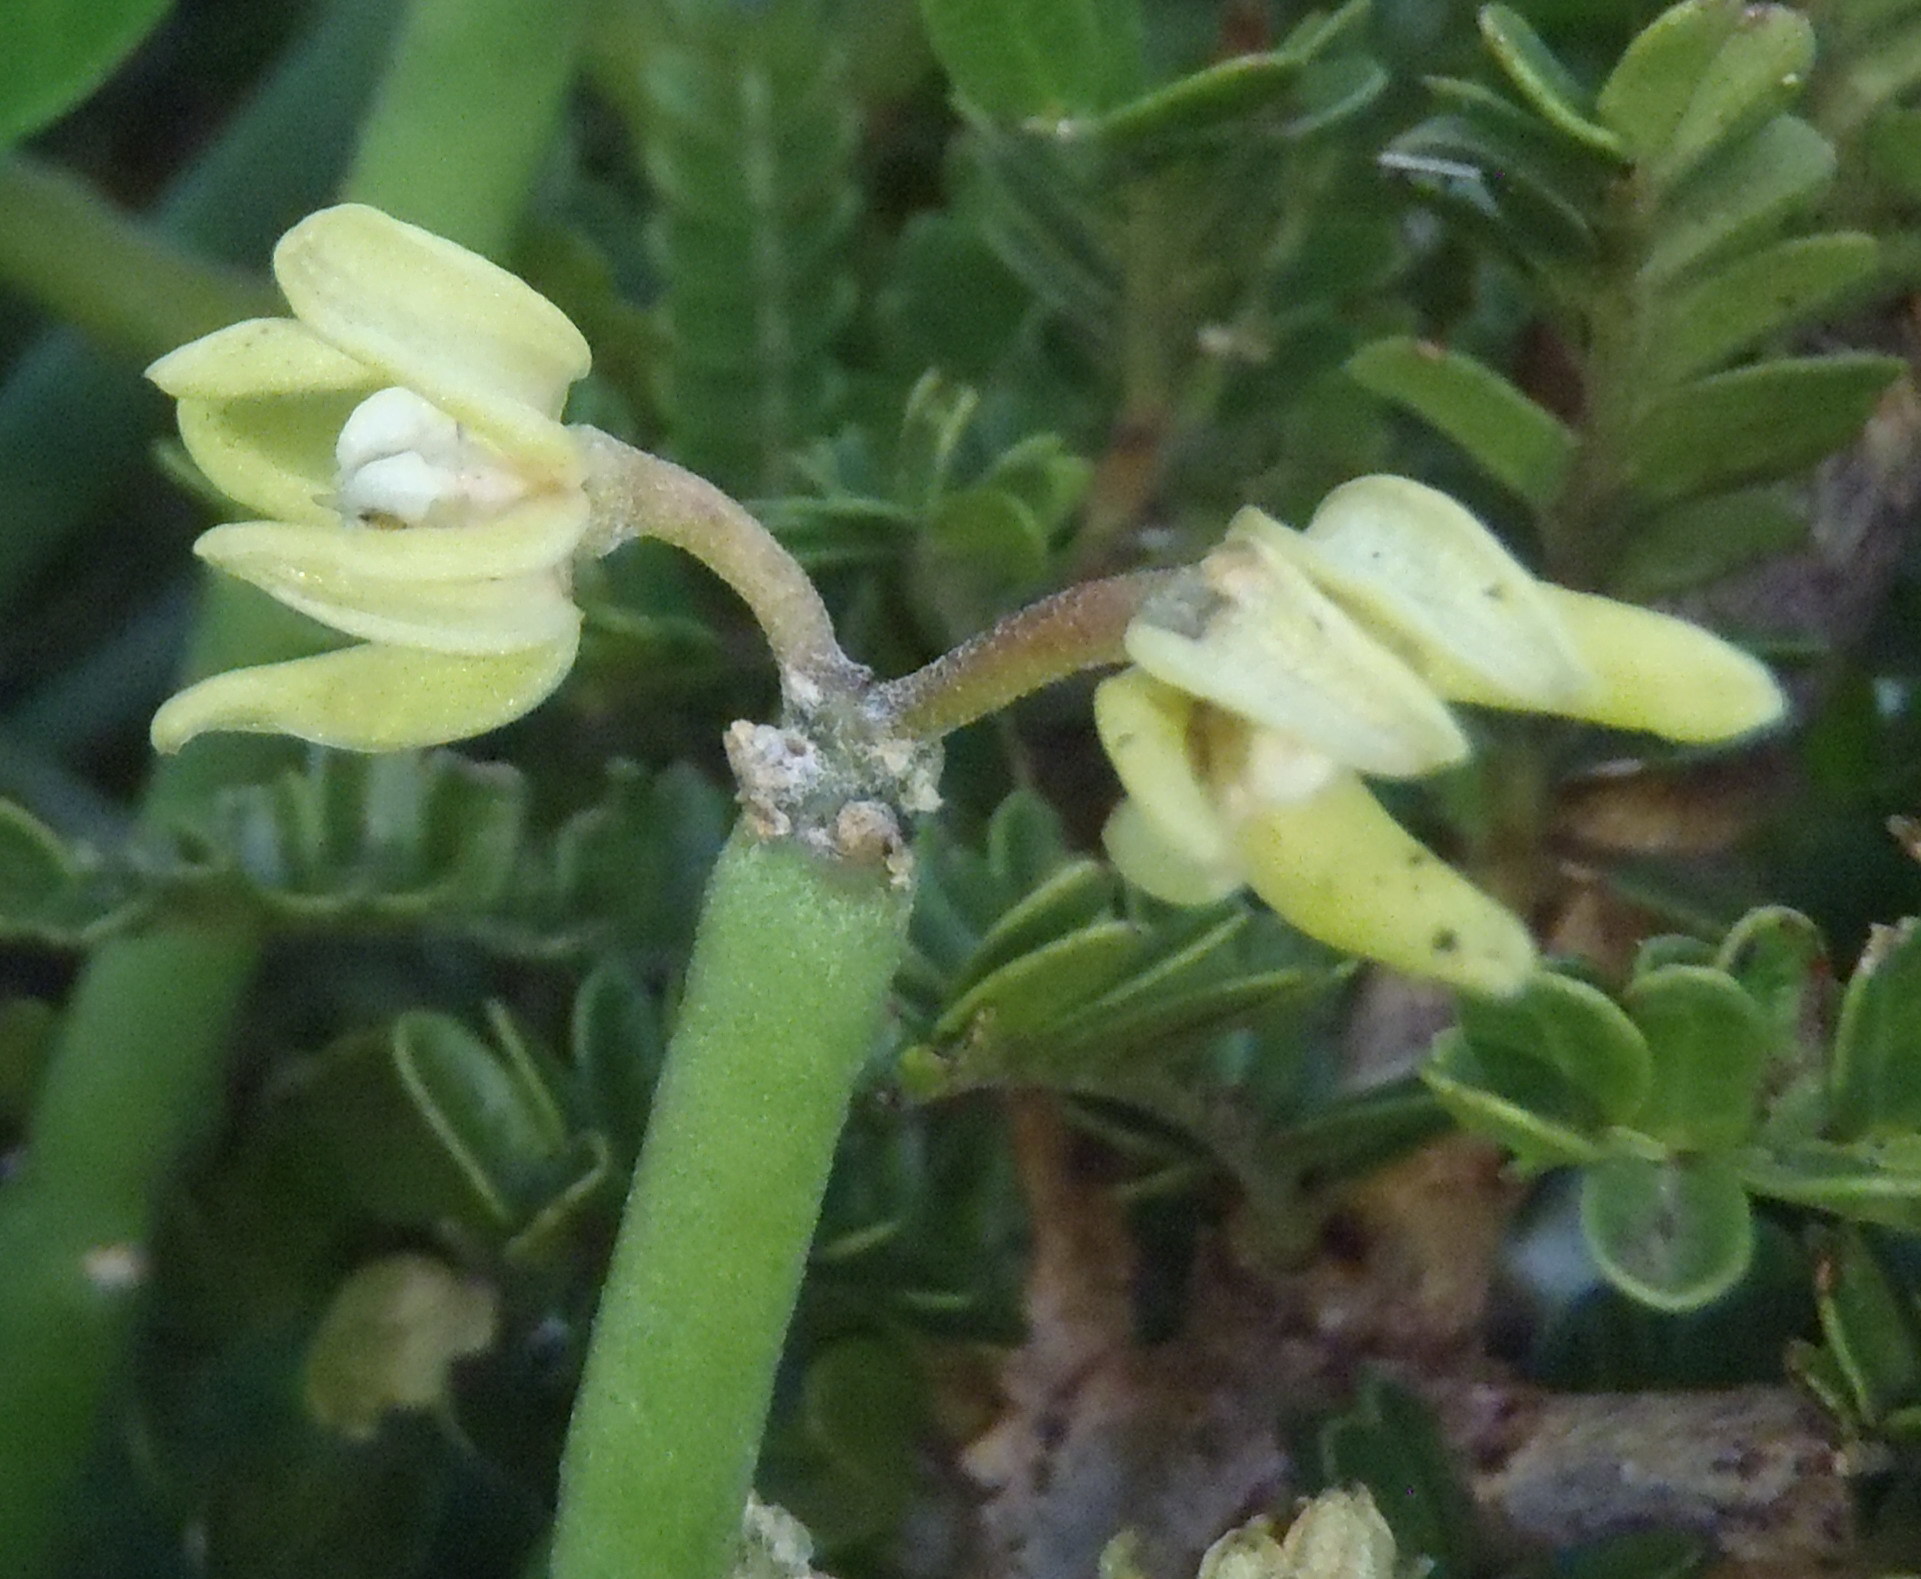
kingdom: Plantae
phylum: Tracheophyta
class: Magnoliopsida
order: Gentianales
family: Apocynaceae
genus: Cynanchum
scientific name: Cynanchum viminale
